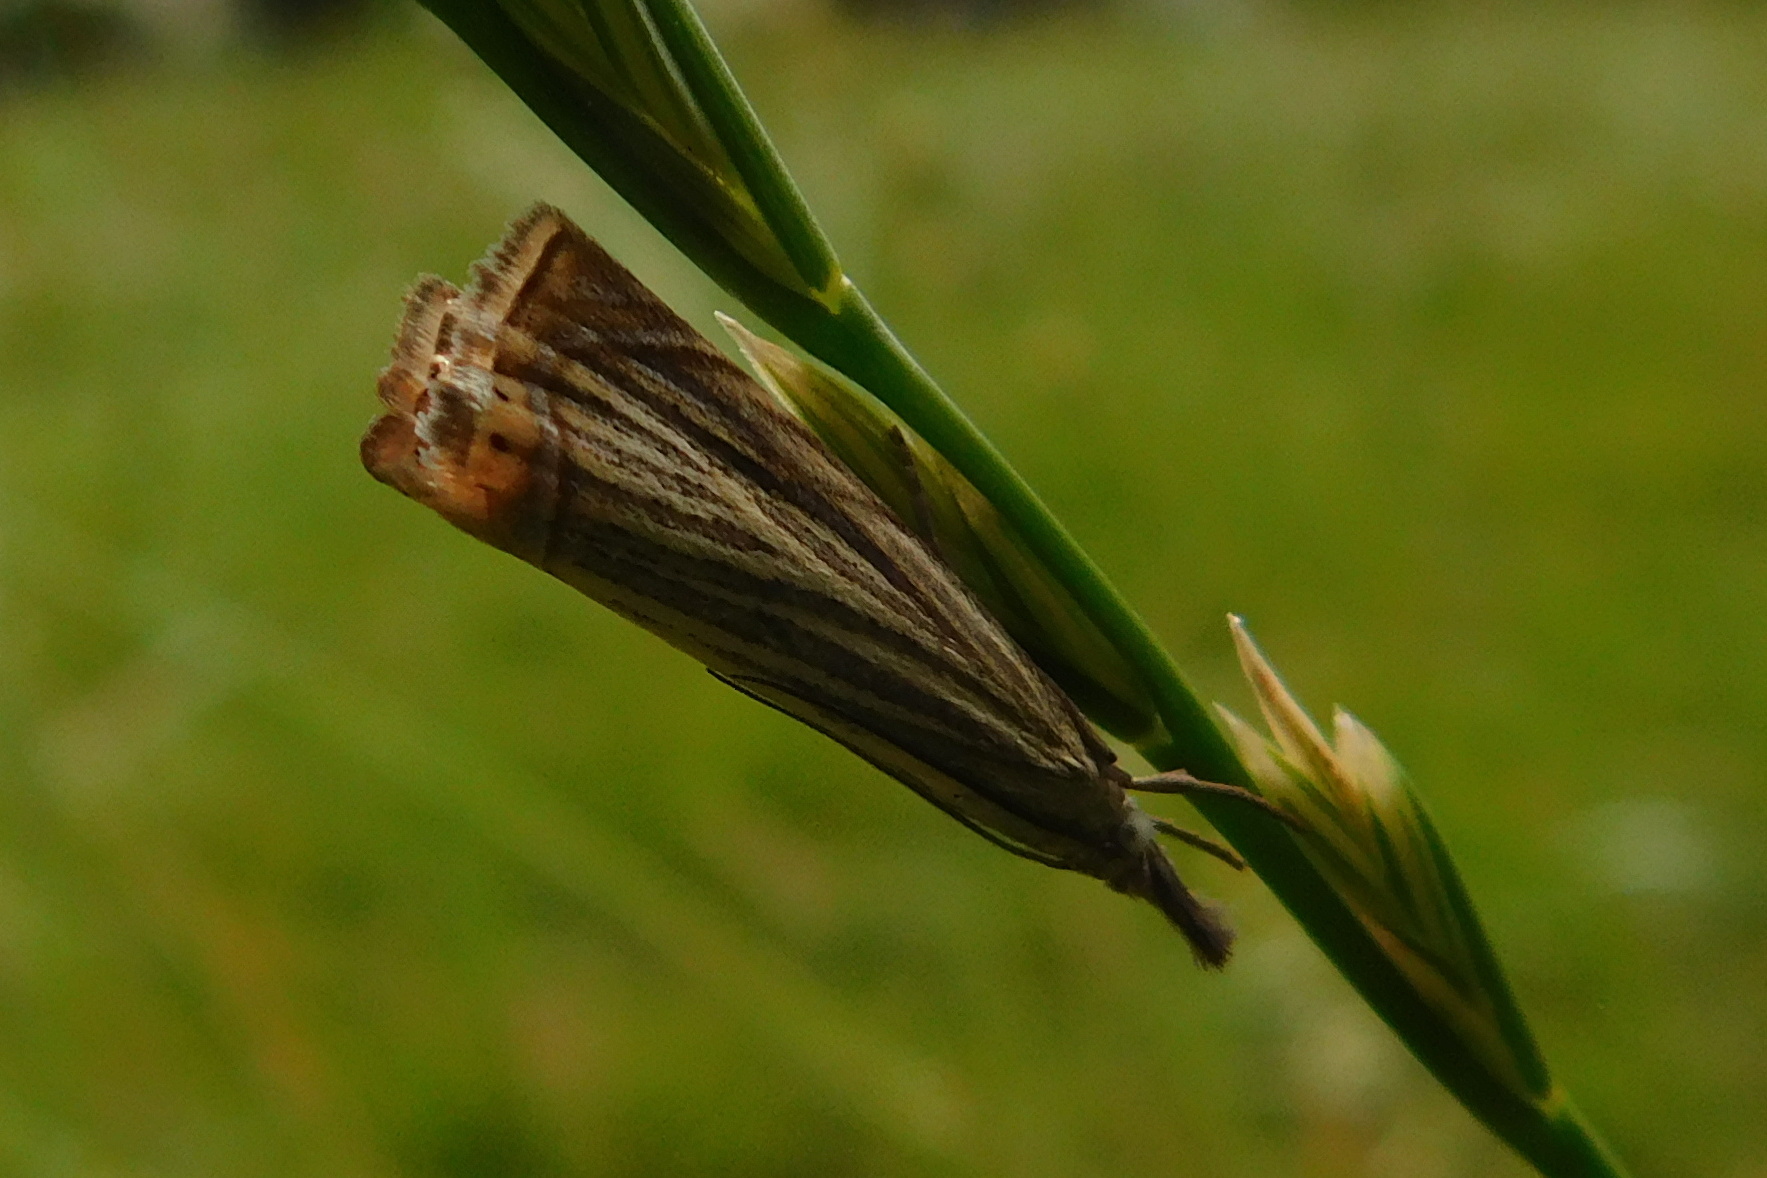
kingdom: Animalia
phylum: Arthropoda
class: Insecta
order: Lepidoptera
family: Crambidae
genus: Chrysoteuchia
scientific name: Chrysoteuchia culmella
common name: Garden grass-veneer
